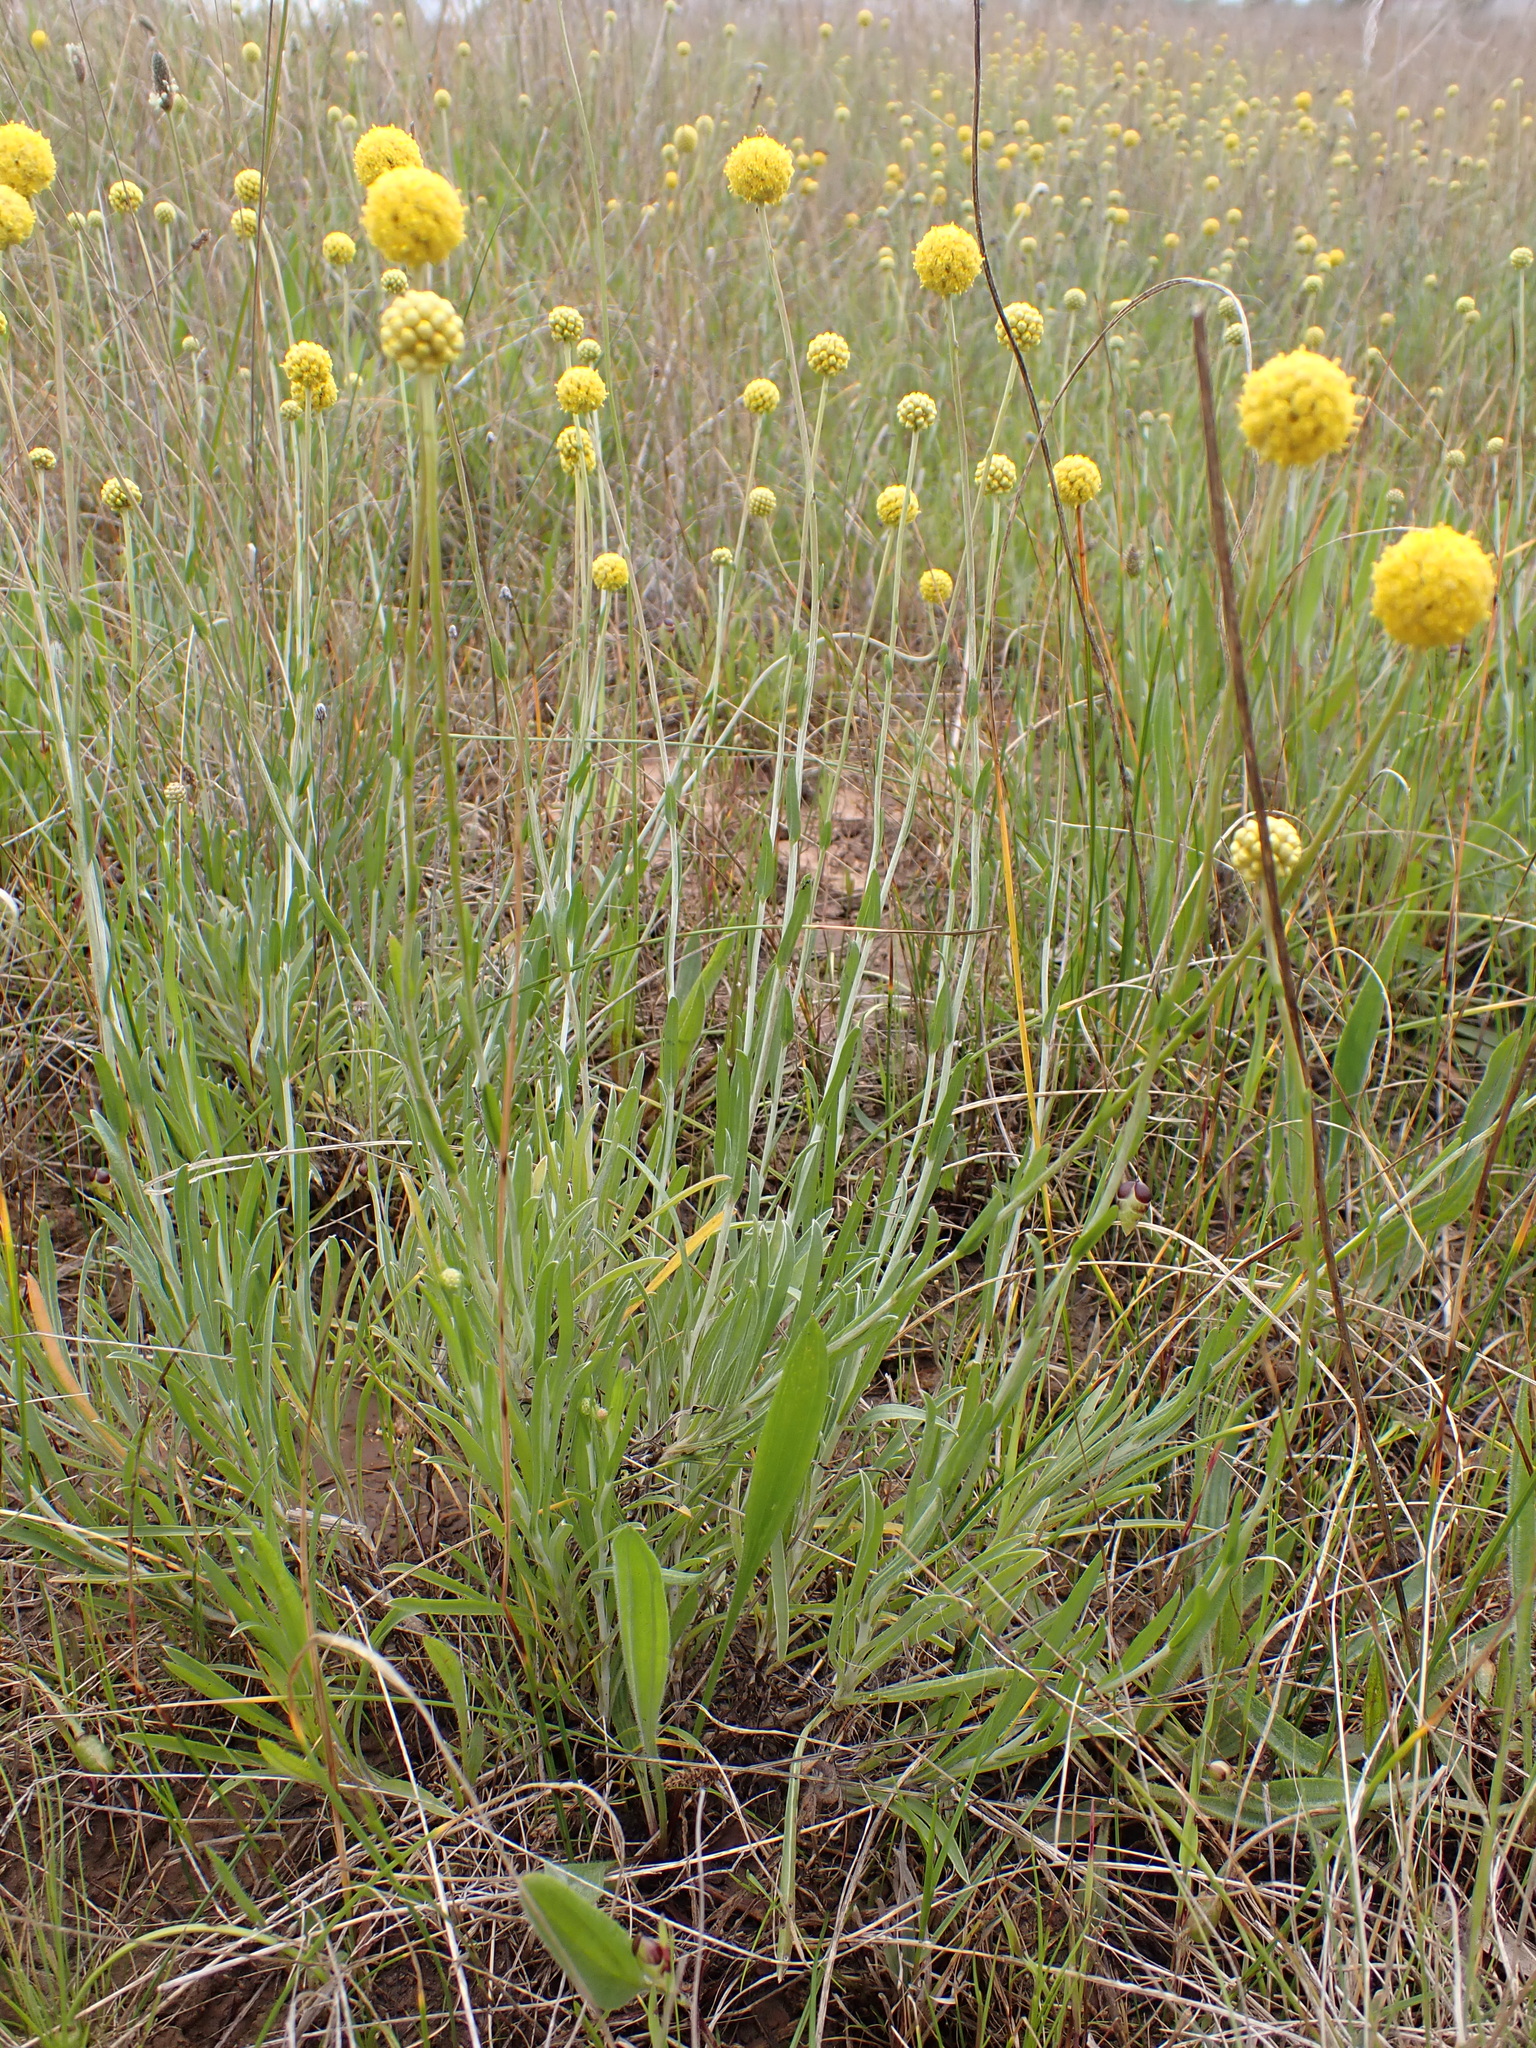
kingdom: Plantae
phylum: Tracheophyta
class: Magnoliopsida
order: Asterales
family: Asteraceae
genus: Pycnosorus
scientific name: Pycnosorus chrysanthus
